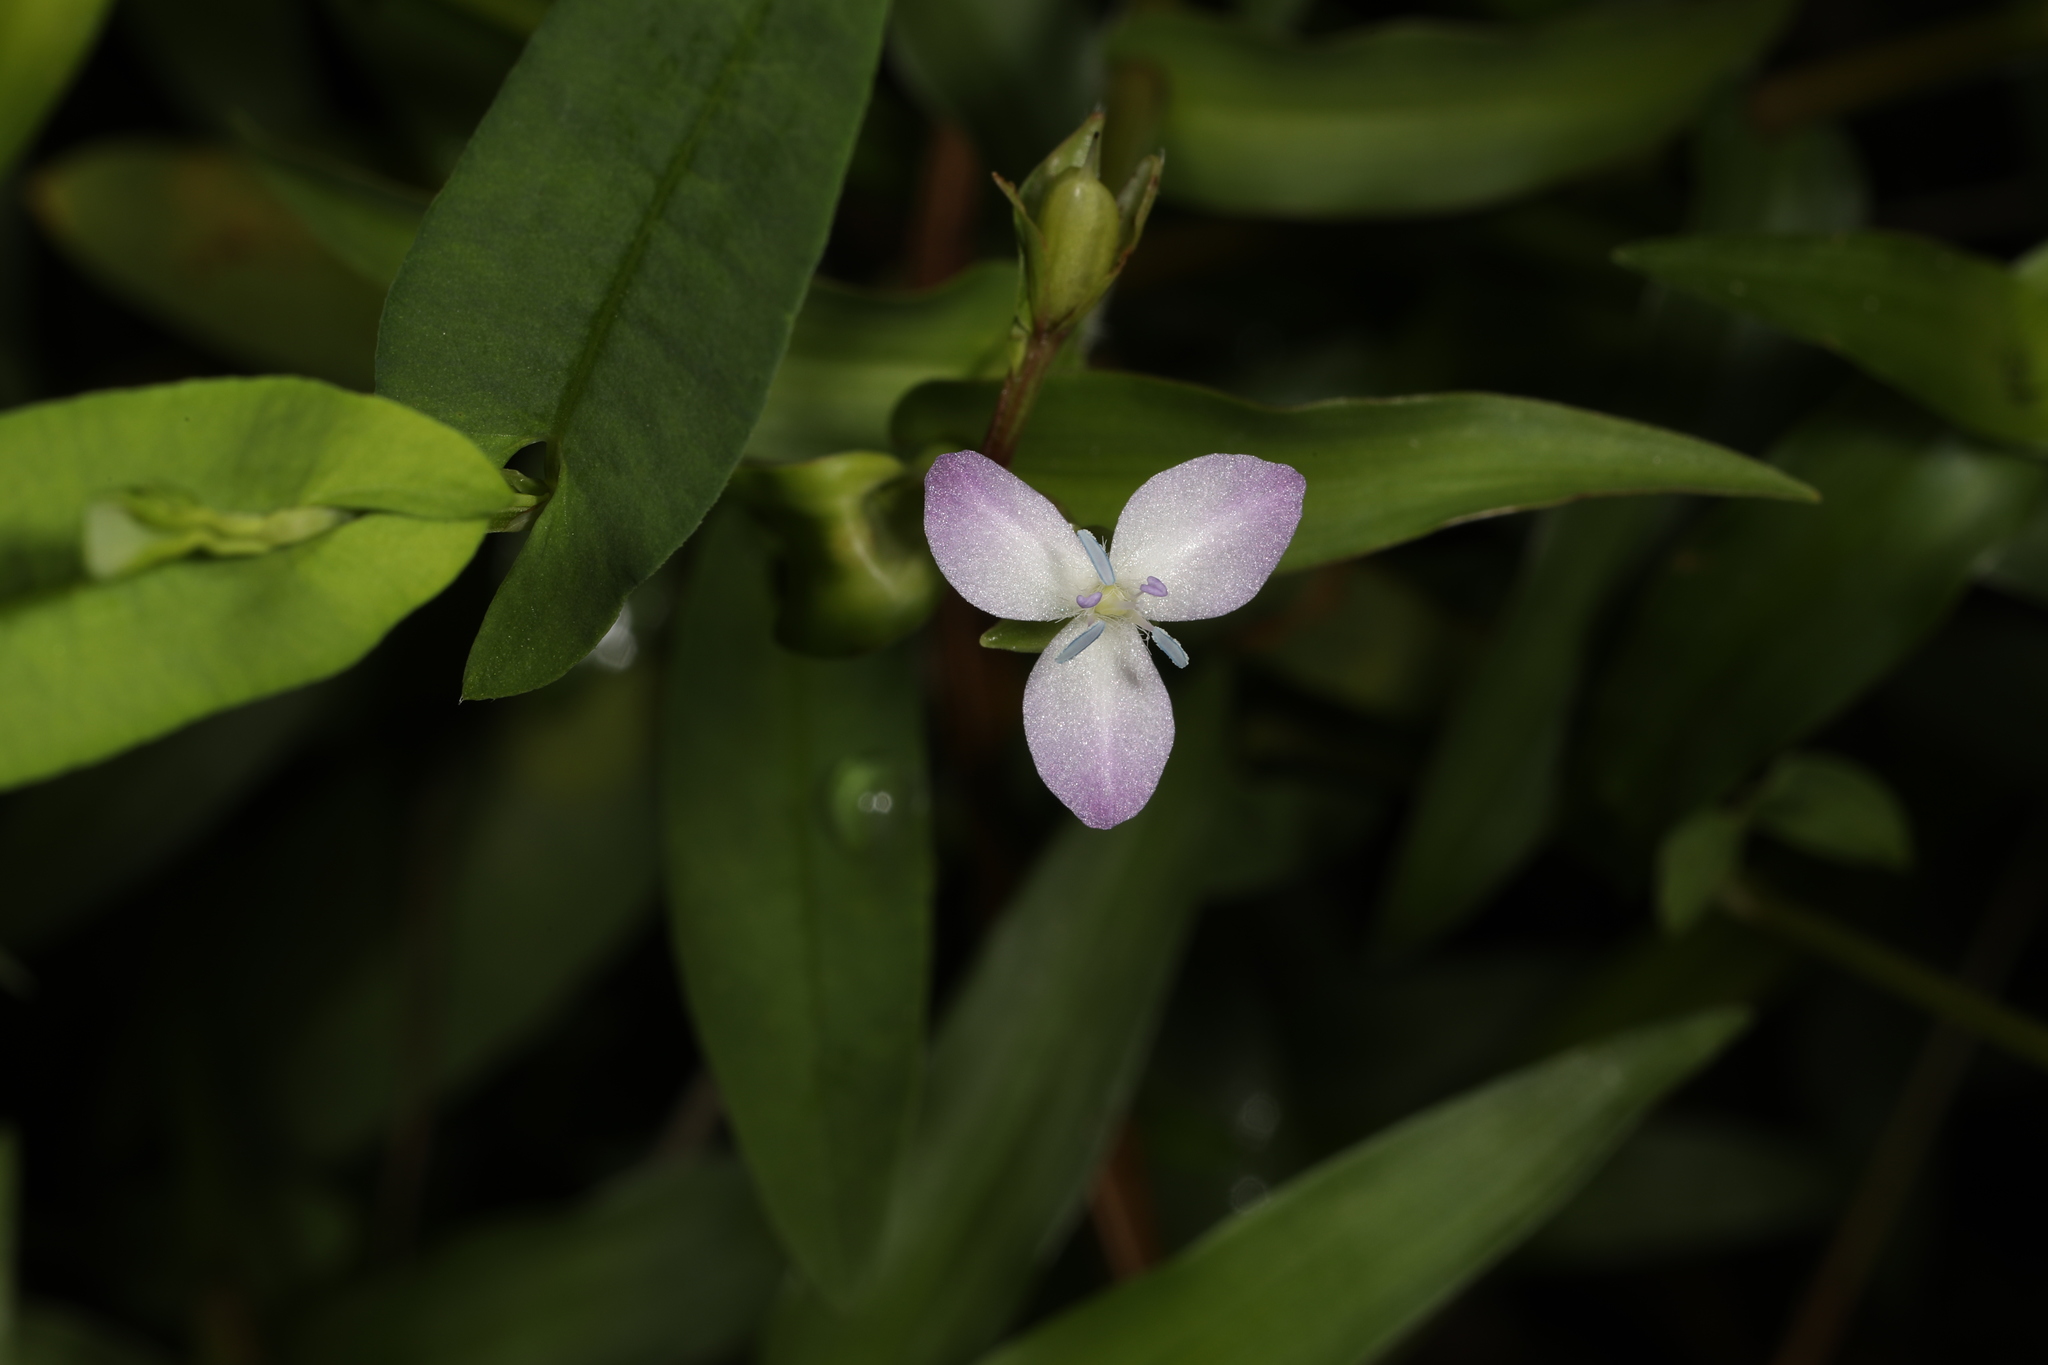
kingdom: Plantae
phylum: Tracheophyta
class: Liliopsida
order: Commelinales
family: Commelinaceae
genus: Murdannia
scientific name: Murdannia keisak
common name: Wartremoving herb
